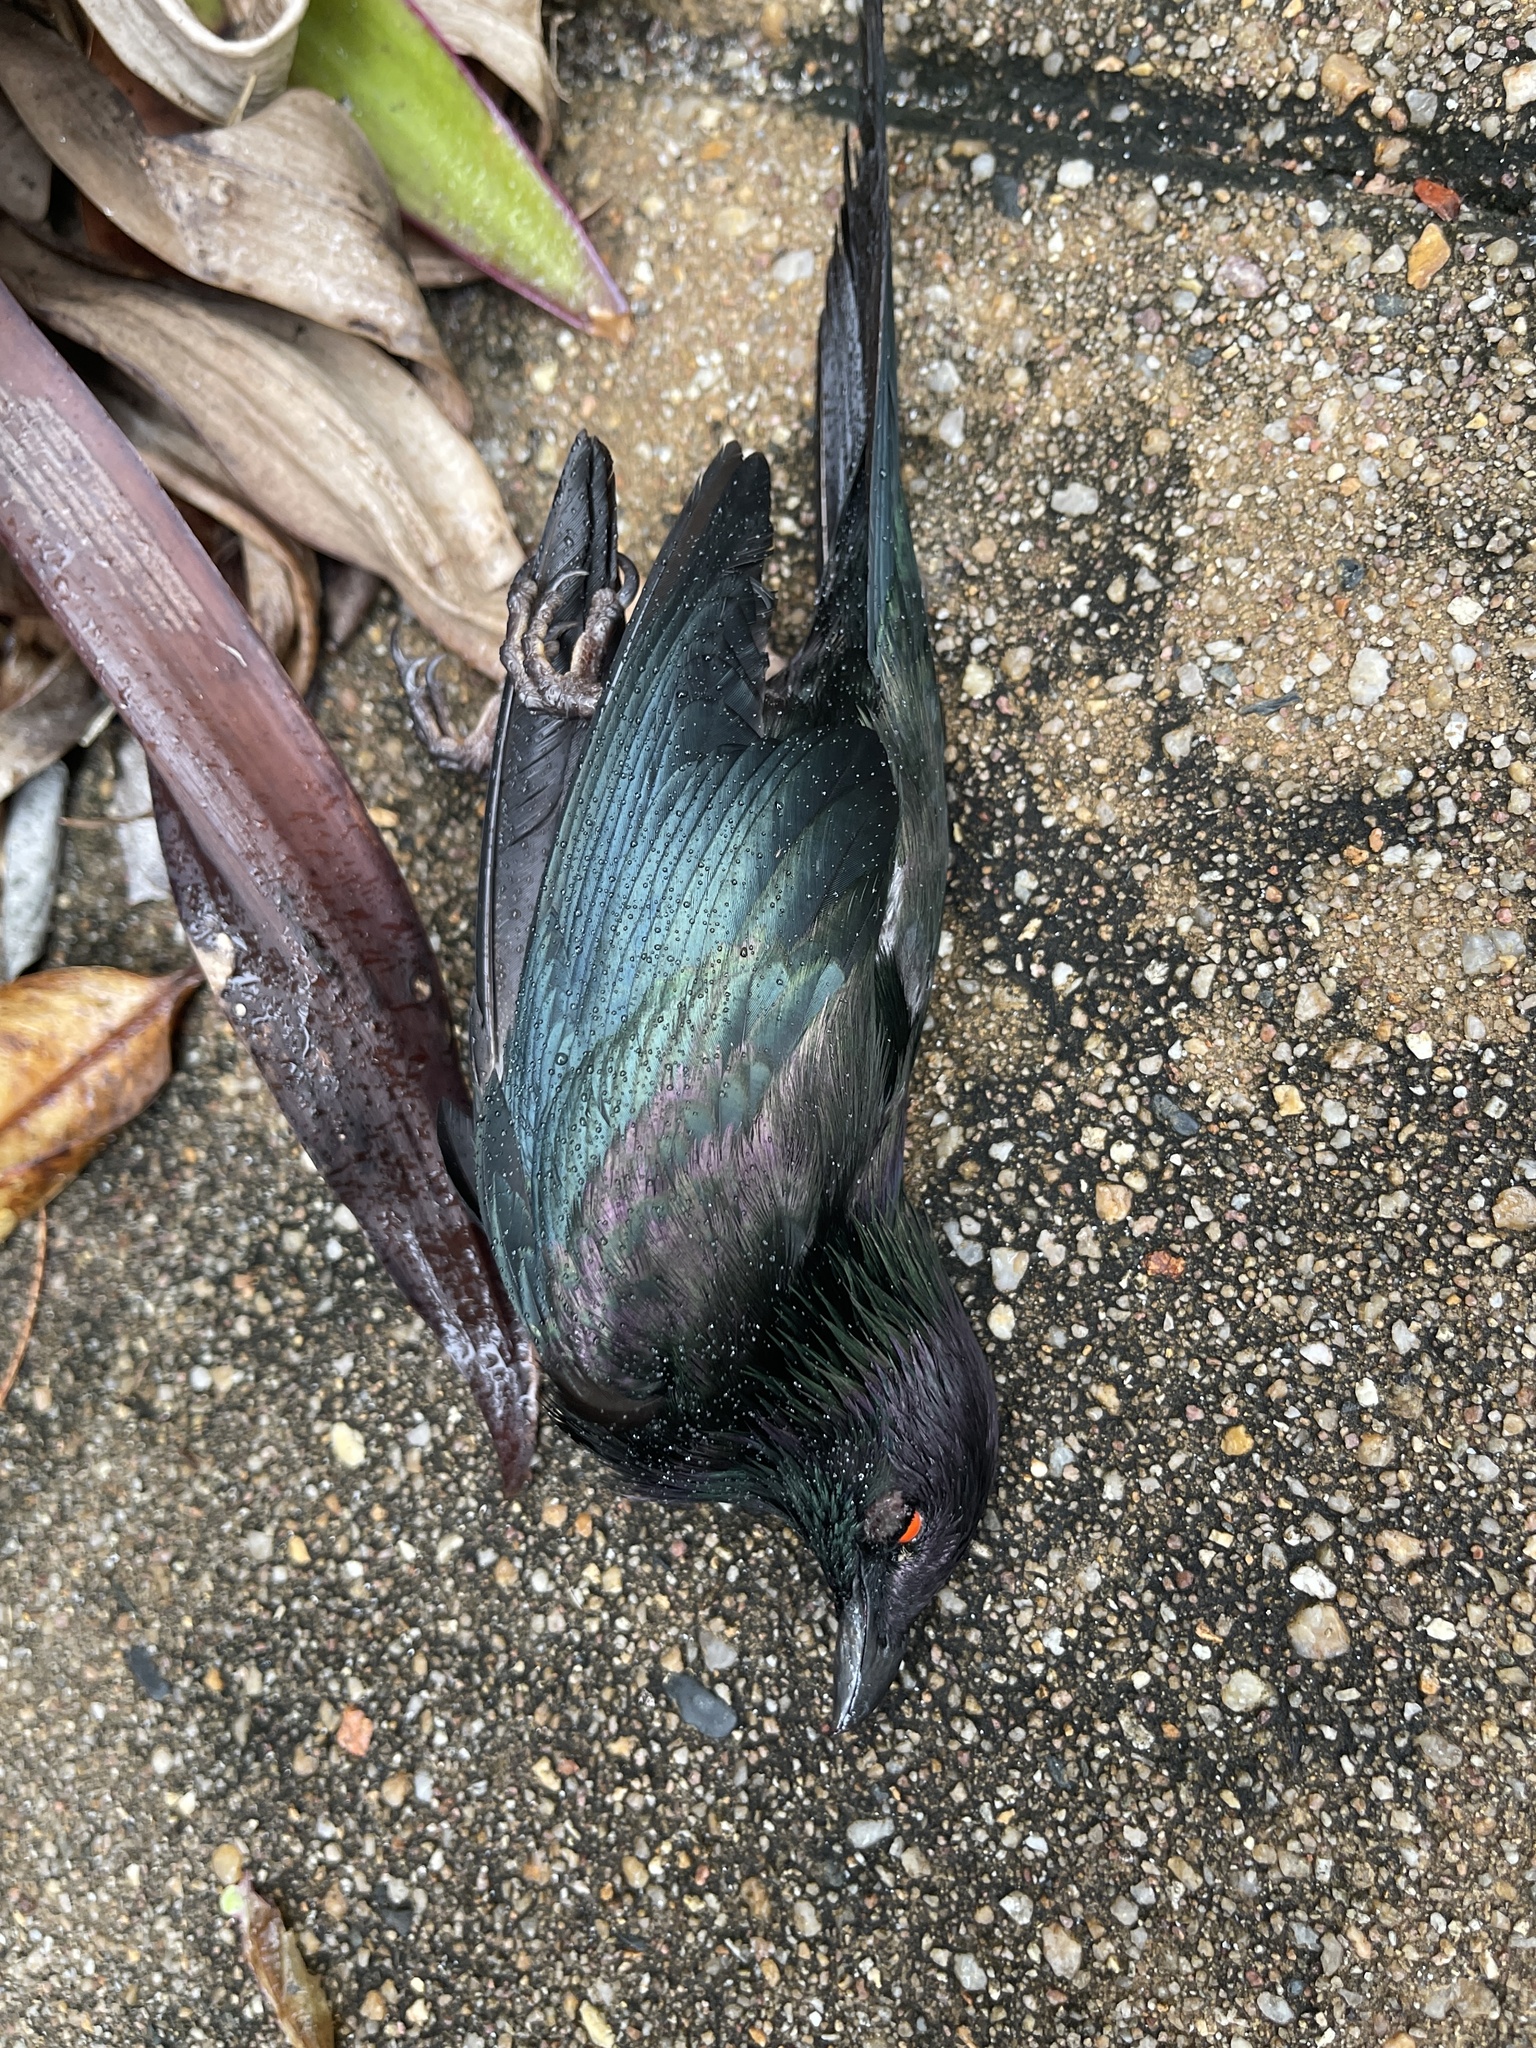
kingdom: Animalia
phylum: Chordata
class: Aves
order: Passeriformes
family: Sturnidae
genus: Aplonis
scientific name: Aplonis metallica
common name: Metallic starling
